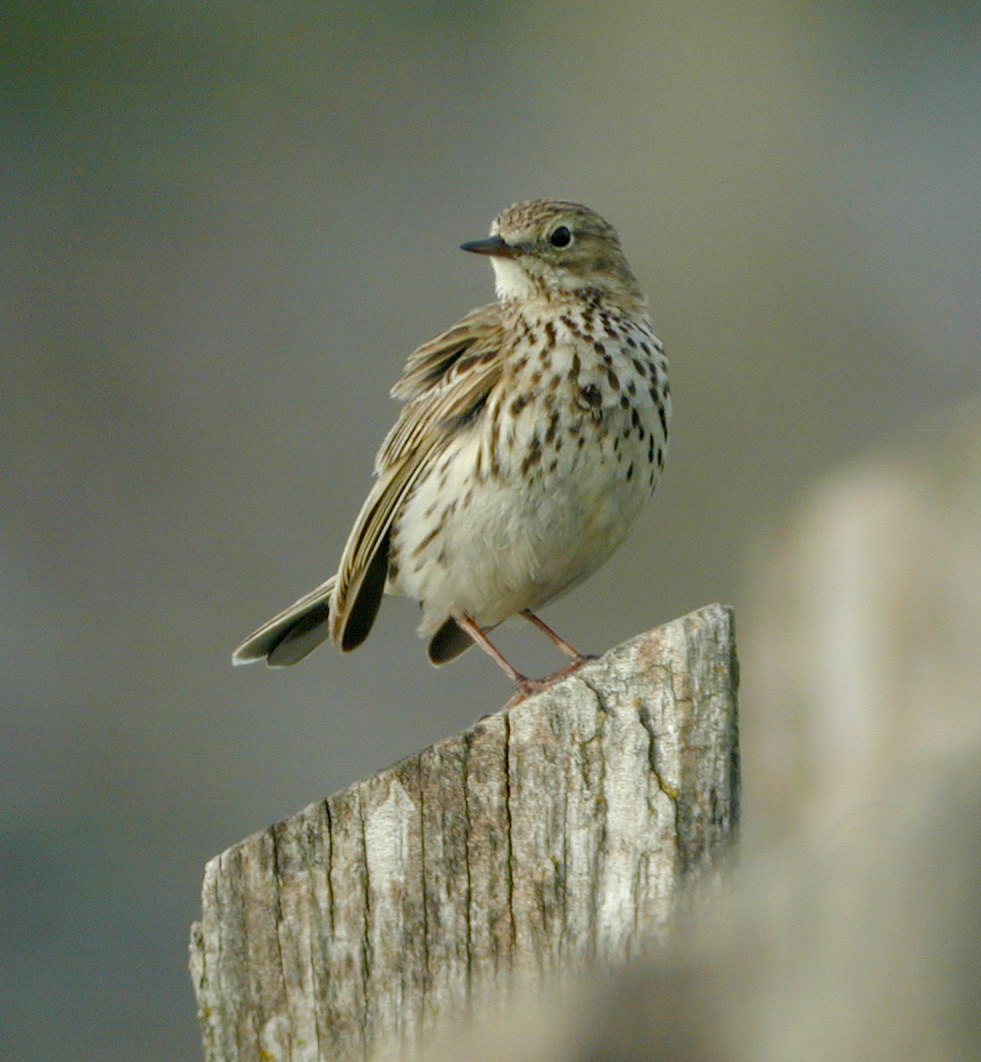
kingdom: Animalia
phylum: Chordata
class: Aves
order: Passeriformes
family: Motacillidae
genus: Anthus
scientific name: Anthus pratensis
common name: Meadow pipit
